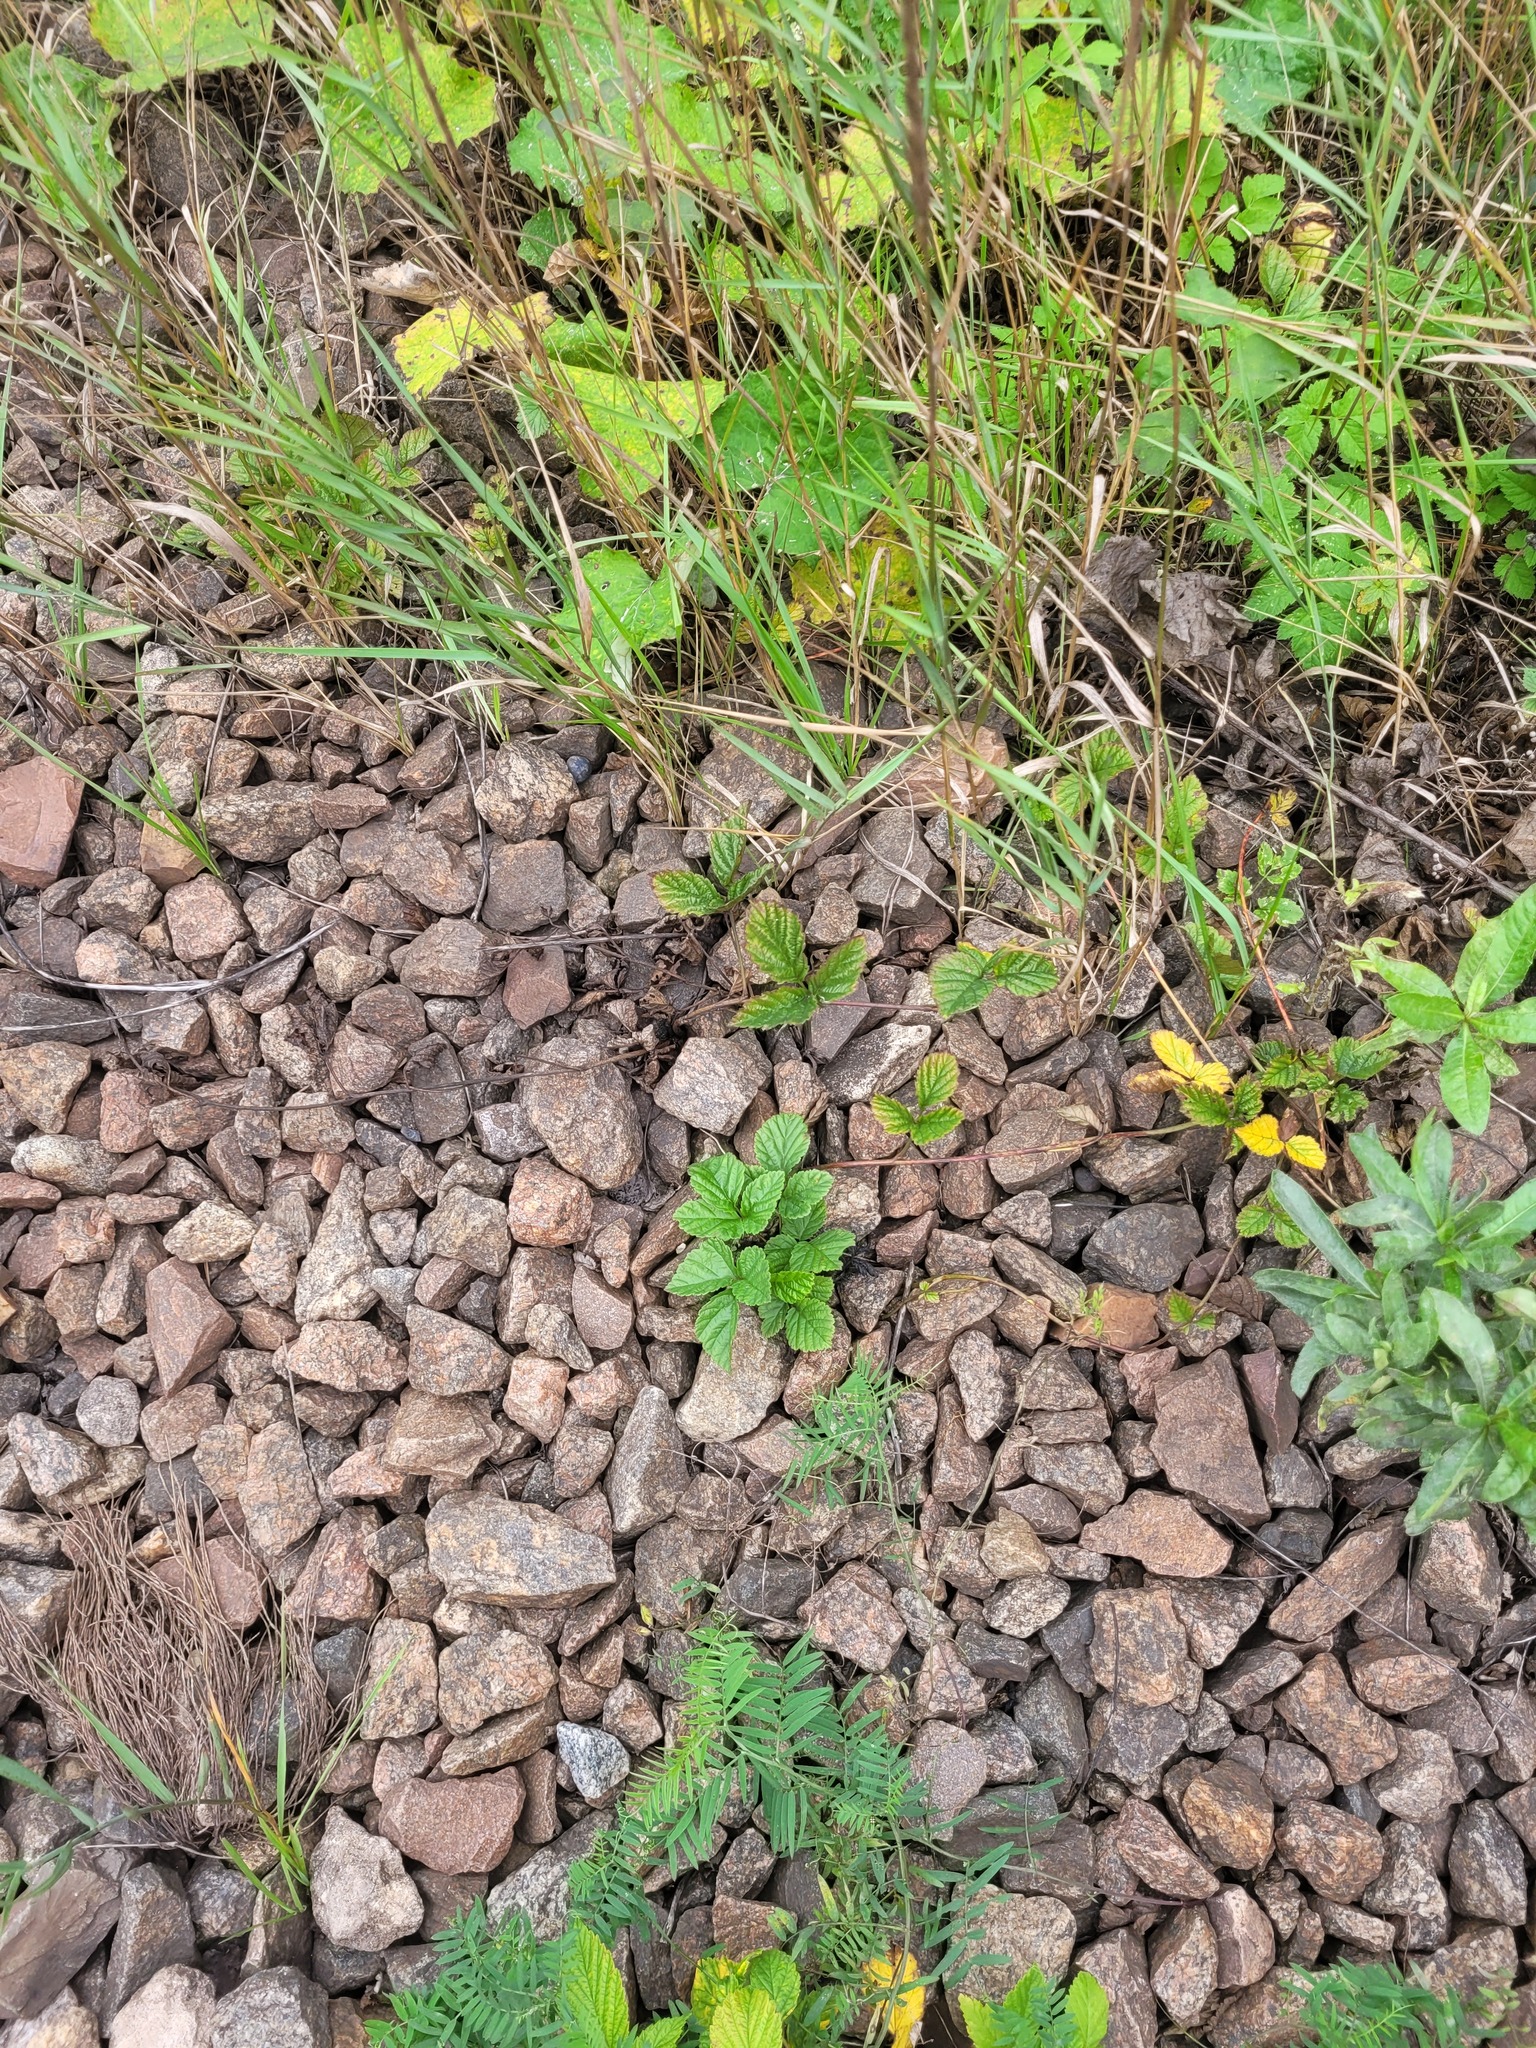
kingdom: Plantae
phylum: Tracheophyta
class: Magnoliopsida
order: Rosales
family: Rosaceae
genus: Rubus
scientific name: Rubus saxatilis
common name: Stone bramble
